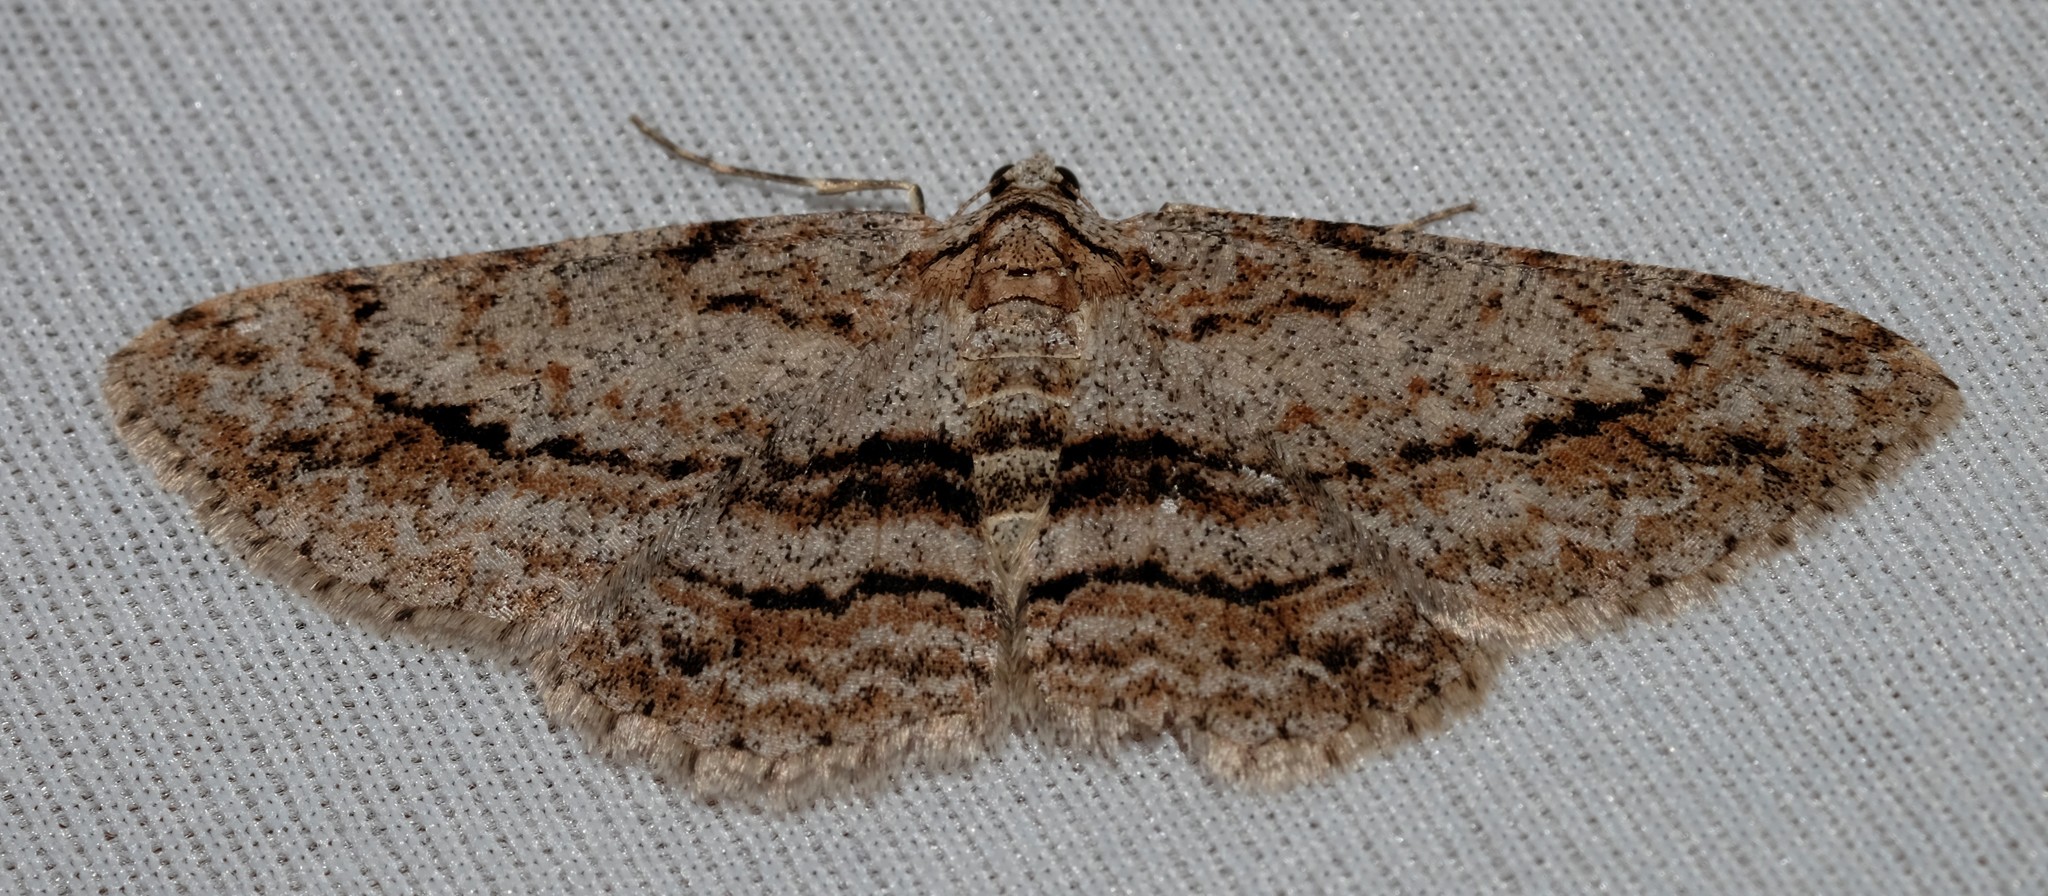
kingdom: Animalia
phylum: Arthropoda
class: Insecta
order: Lepidoptera
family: Geometridae
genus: Didymoctenia
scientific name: Didymoctenia exsuperata
